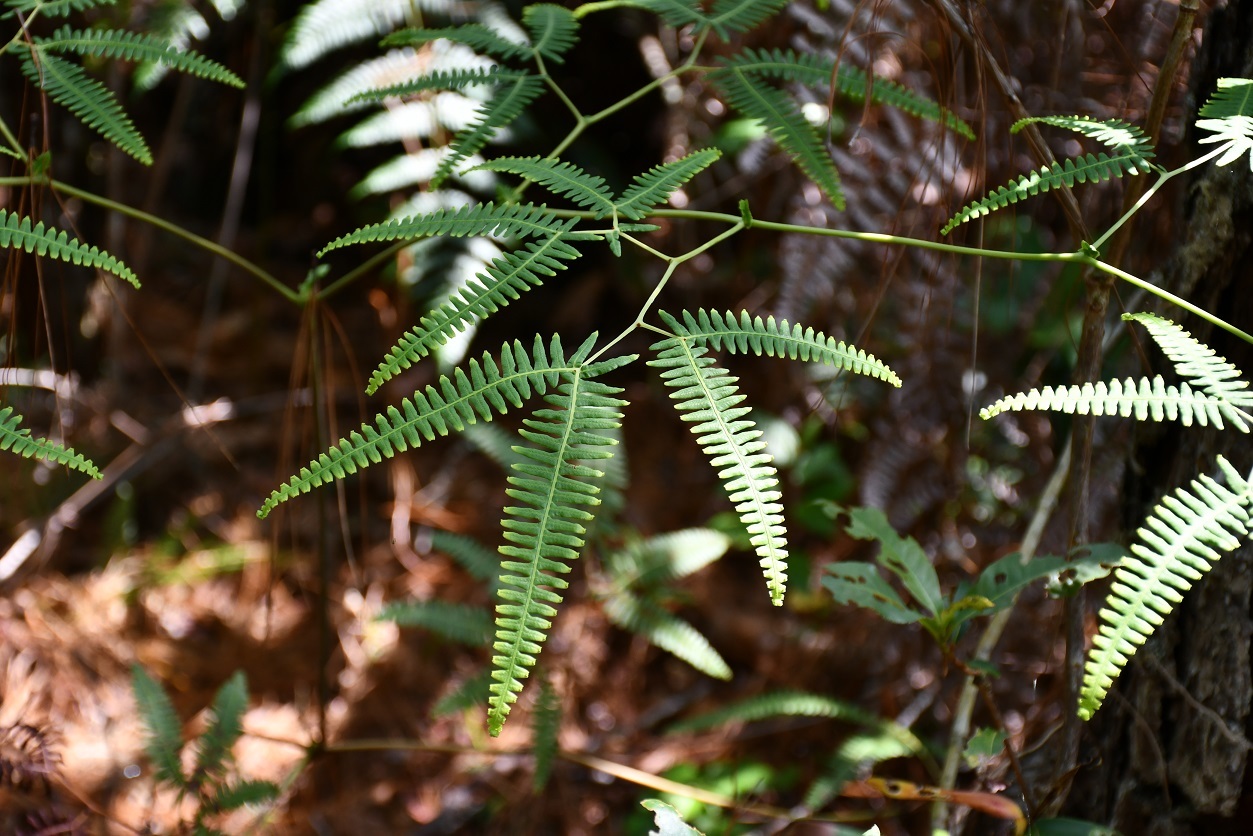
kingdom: Plantae
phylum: Tracheophyta
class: Polypodiopsida
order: Gleicheniales
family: Gleicheniaceae
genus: Gleichenella
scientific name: Gleichenella pectinata
